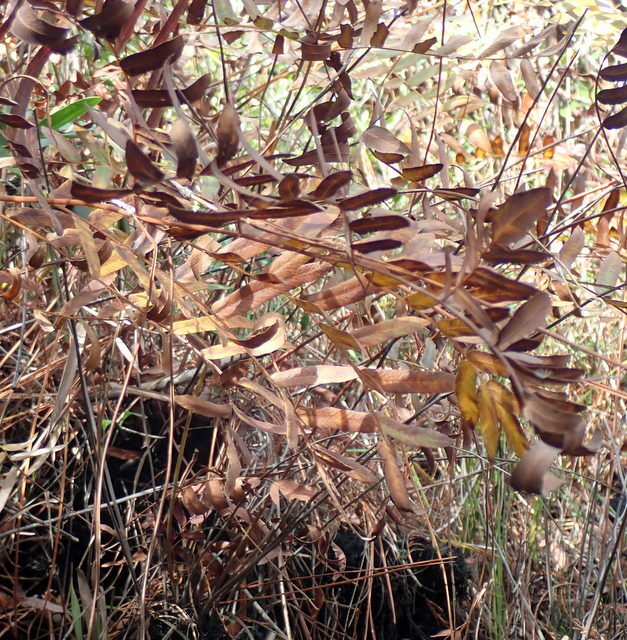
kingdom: Plantae
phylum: Tracheophyta
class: Polypodiopsida
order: Osmundales
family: Osmundaceae
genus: Osmunda
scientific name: Osmunda spectabilis
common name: American royal fern
